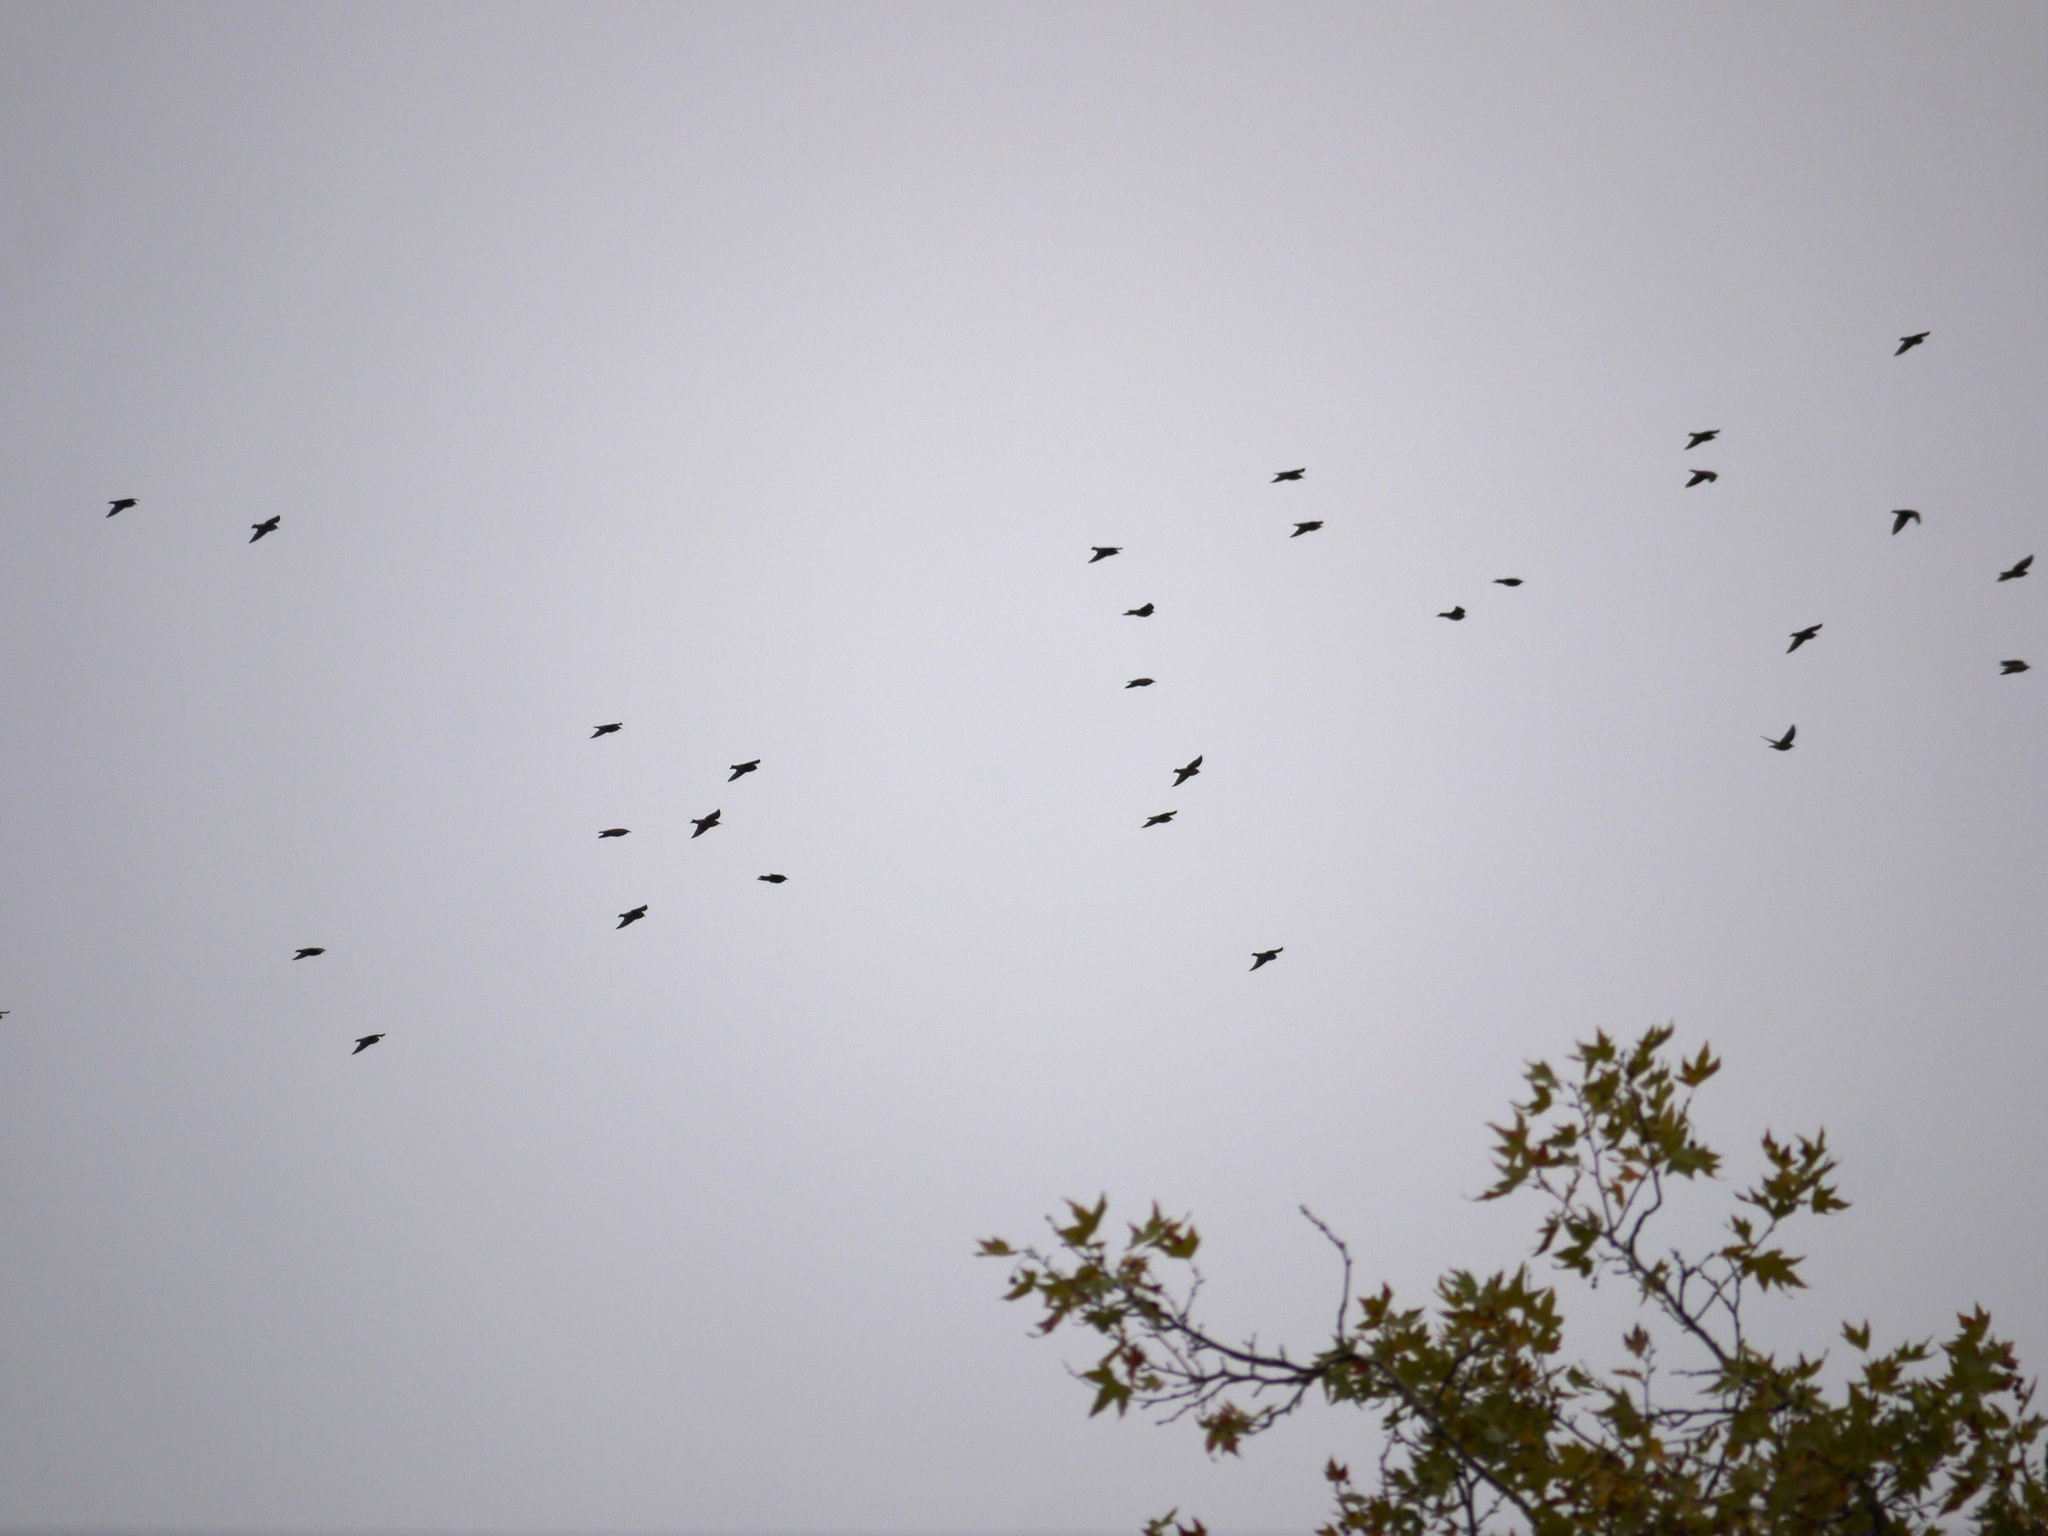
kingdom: Animalia
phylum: Chordata
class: Aves
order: Passeriformes
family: Sturnidae
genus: Sturnus
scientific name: Sturnus vulgaris
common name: Common starling
